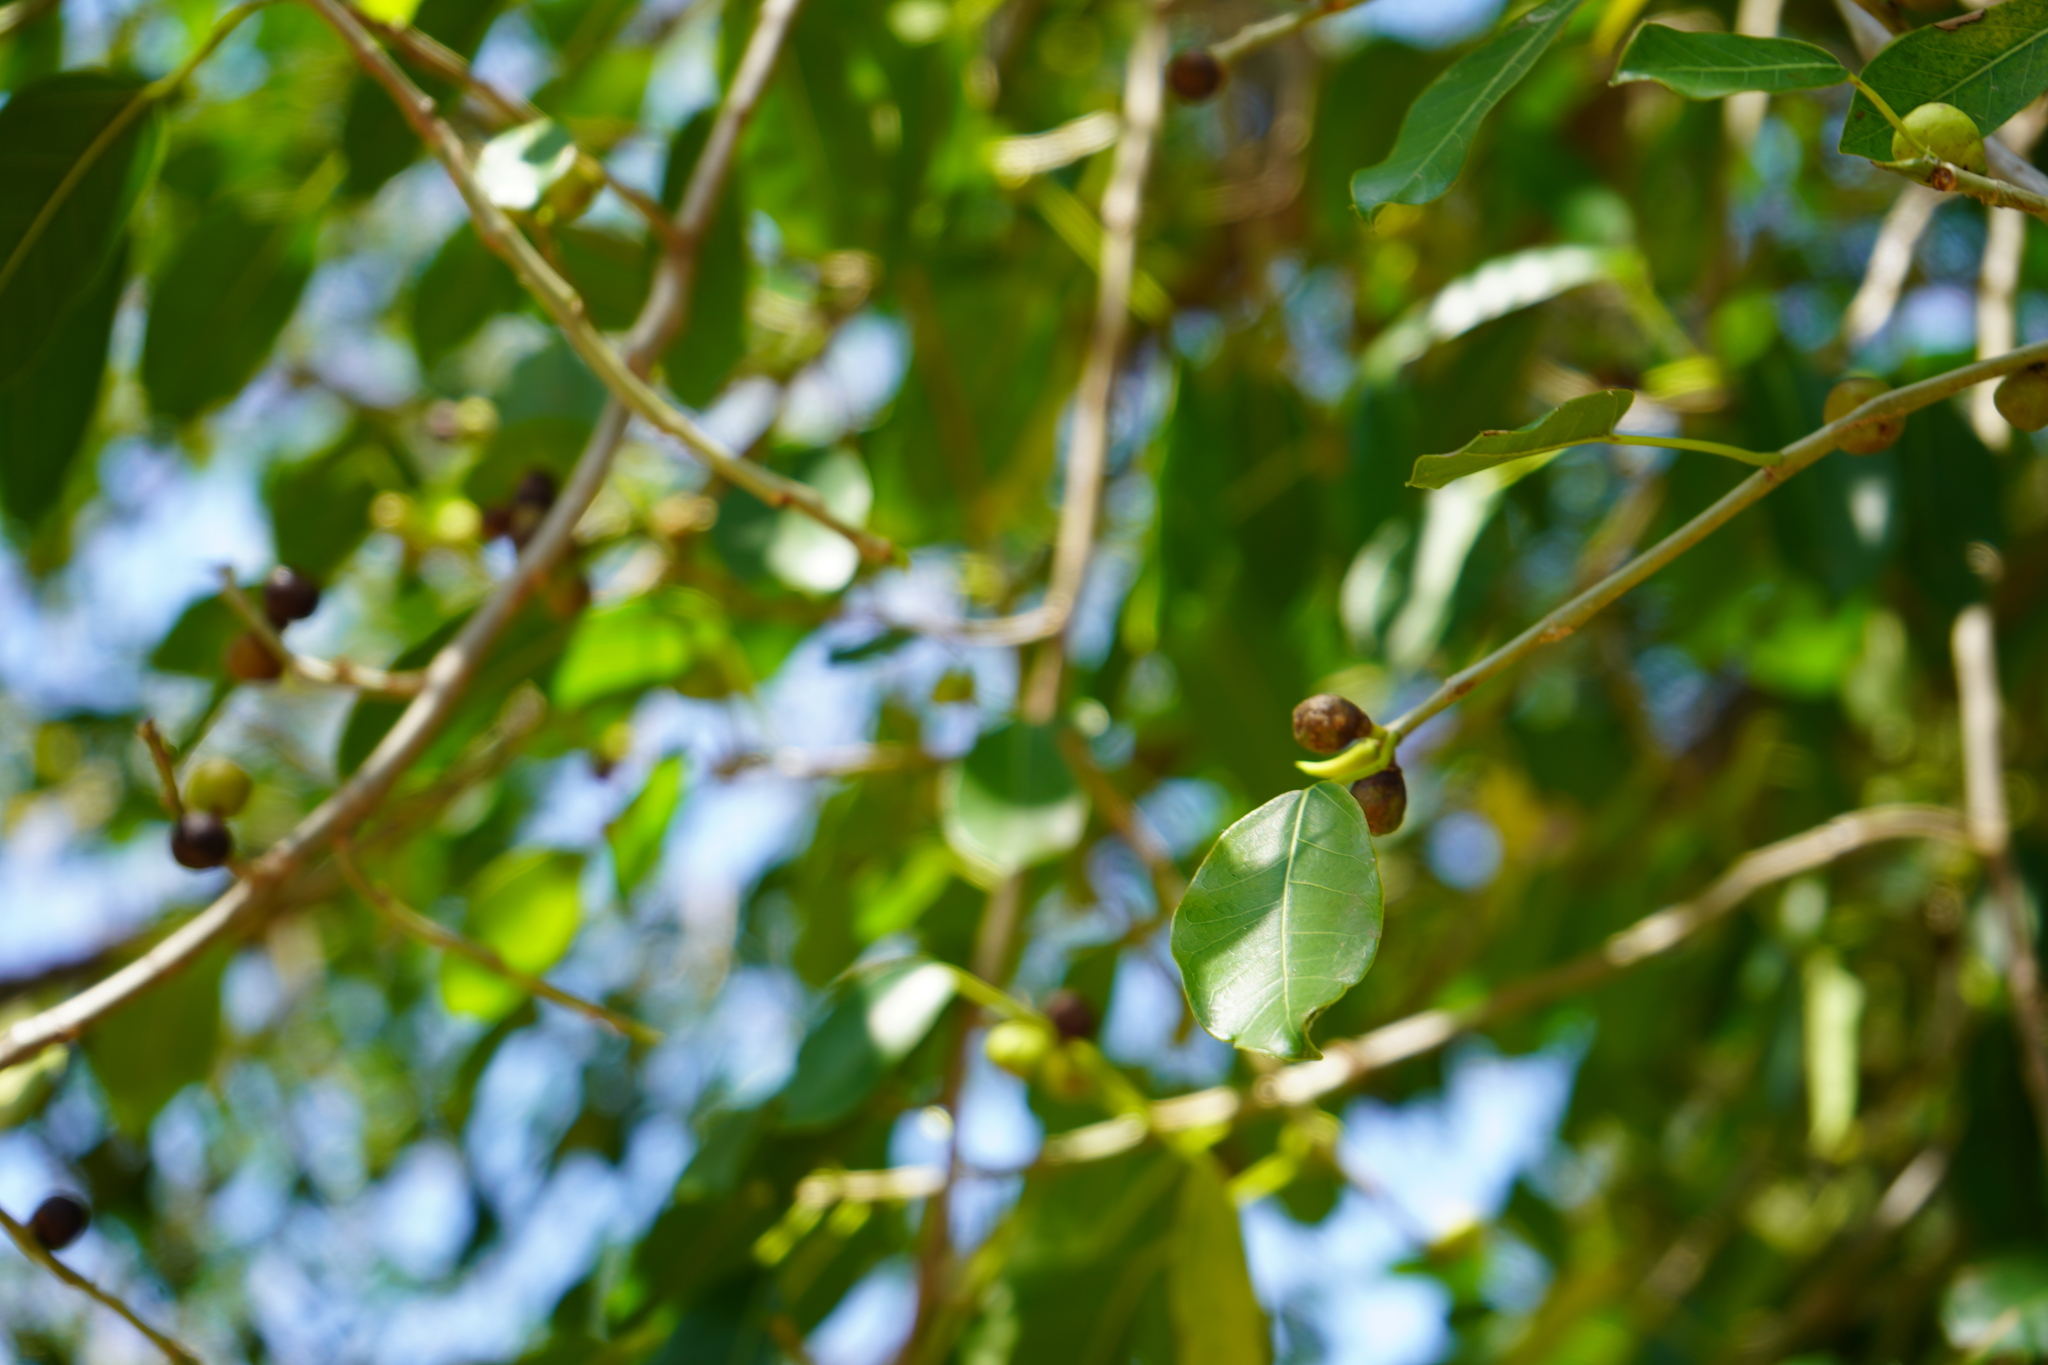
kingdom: Plantae
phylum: Tracheophyta
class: Magnoliopsida
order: Rosales
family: Moraceae
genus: Ficus
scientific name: Ficus luschnathiana
